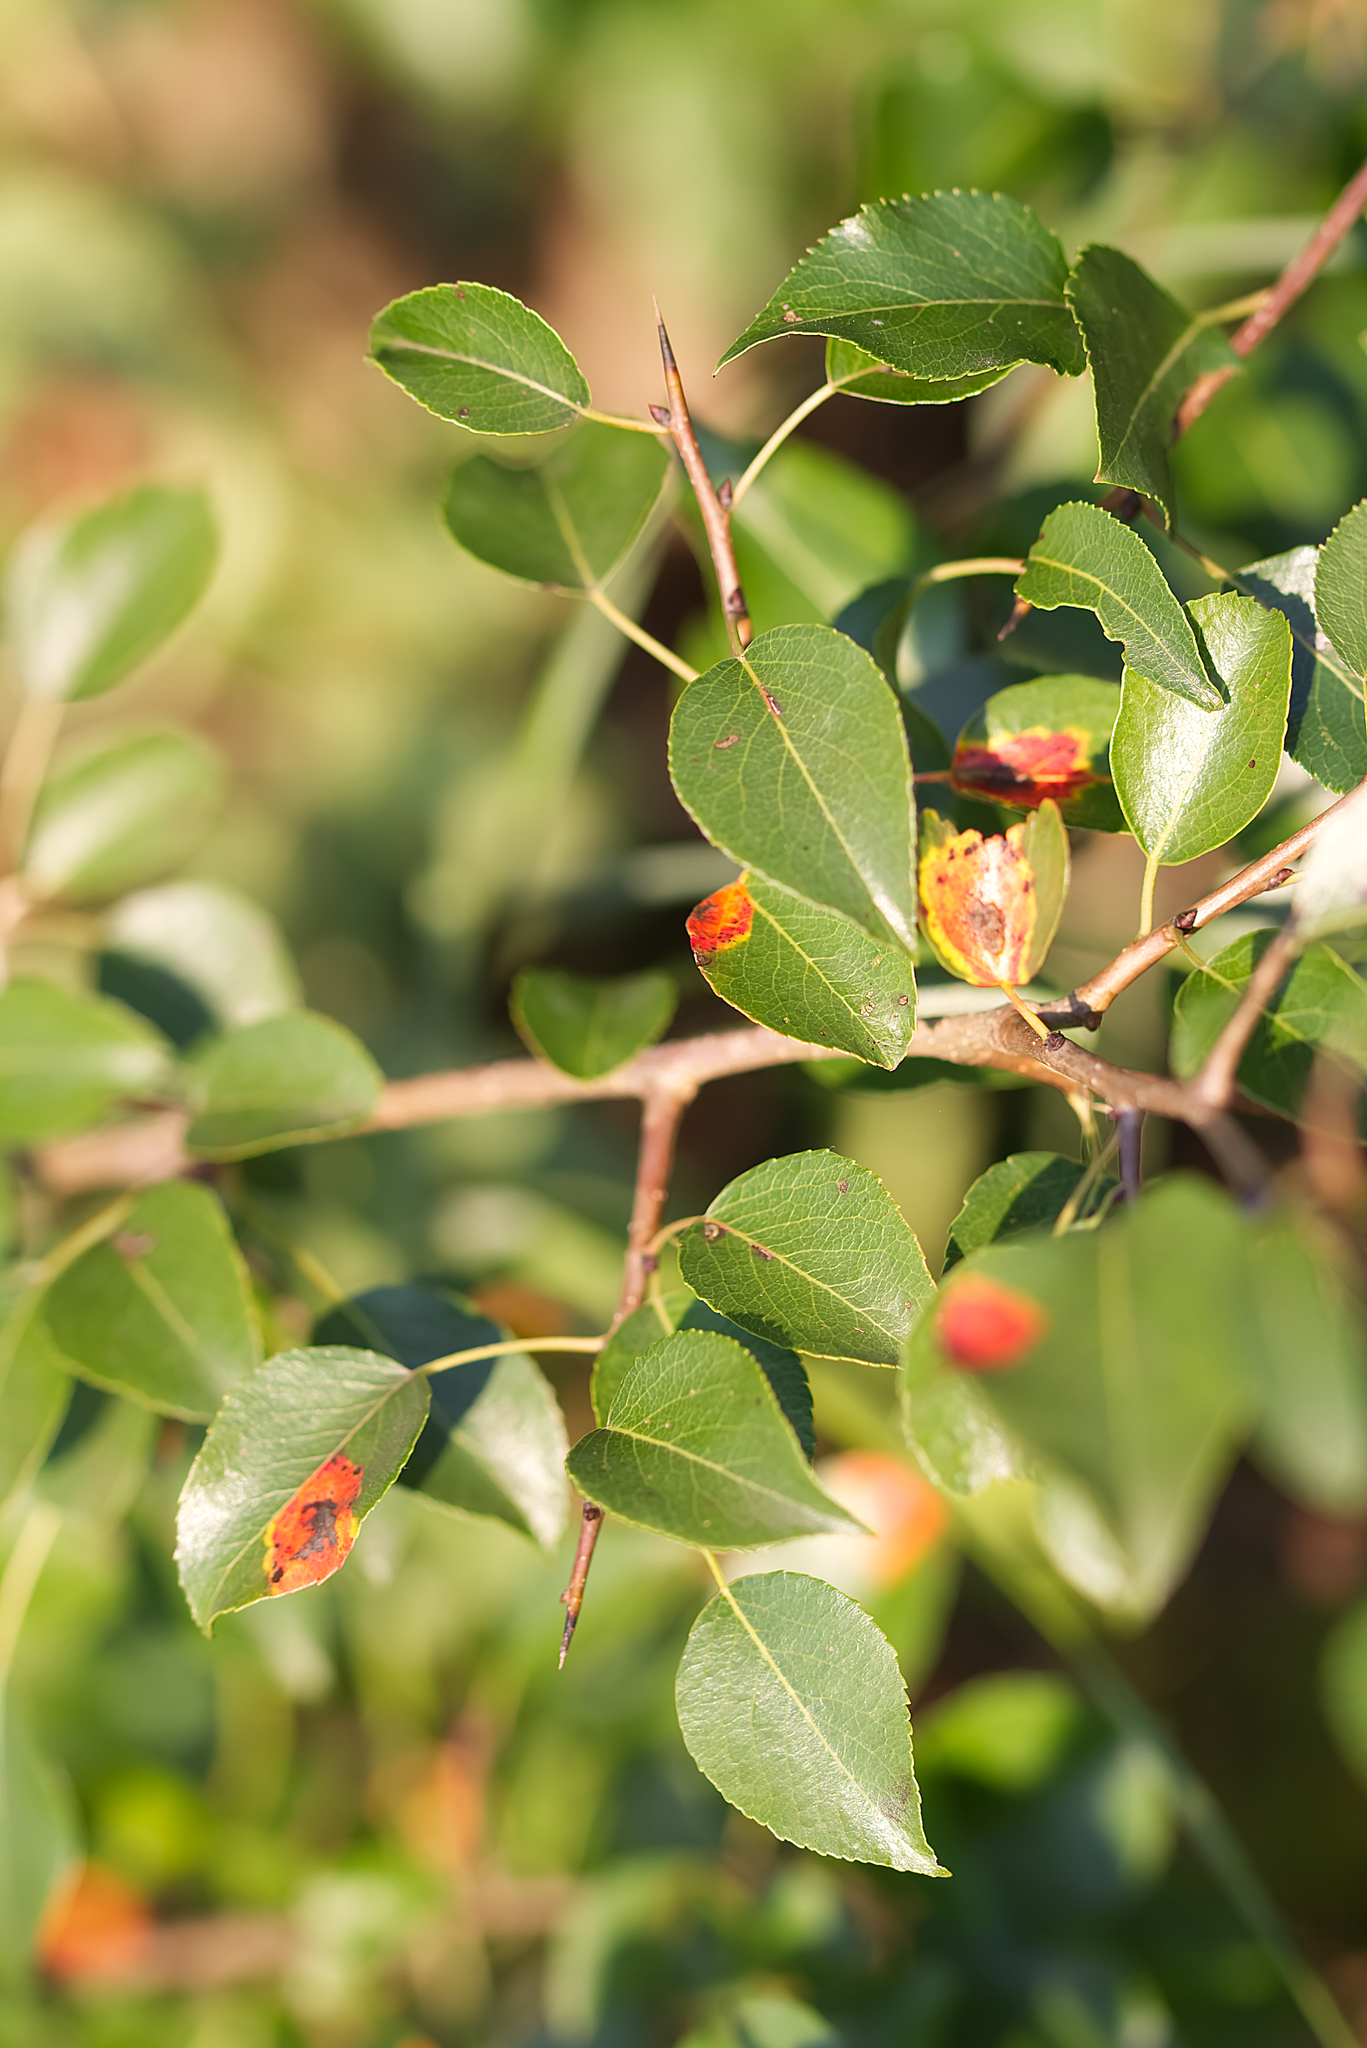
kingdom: Plantae
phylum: Tracheophyta
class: Magnoliopsida
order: Rosales
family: Rosaceae
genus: Pyrus
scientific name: Pyrus
